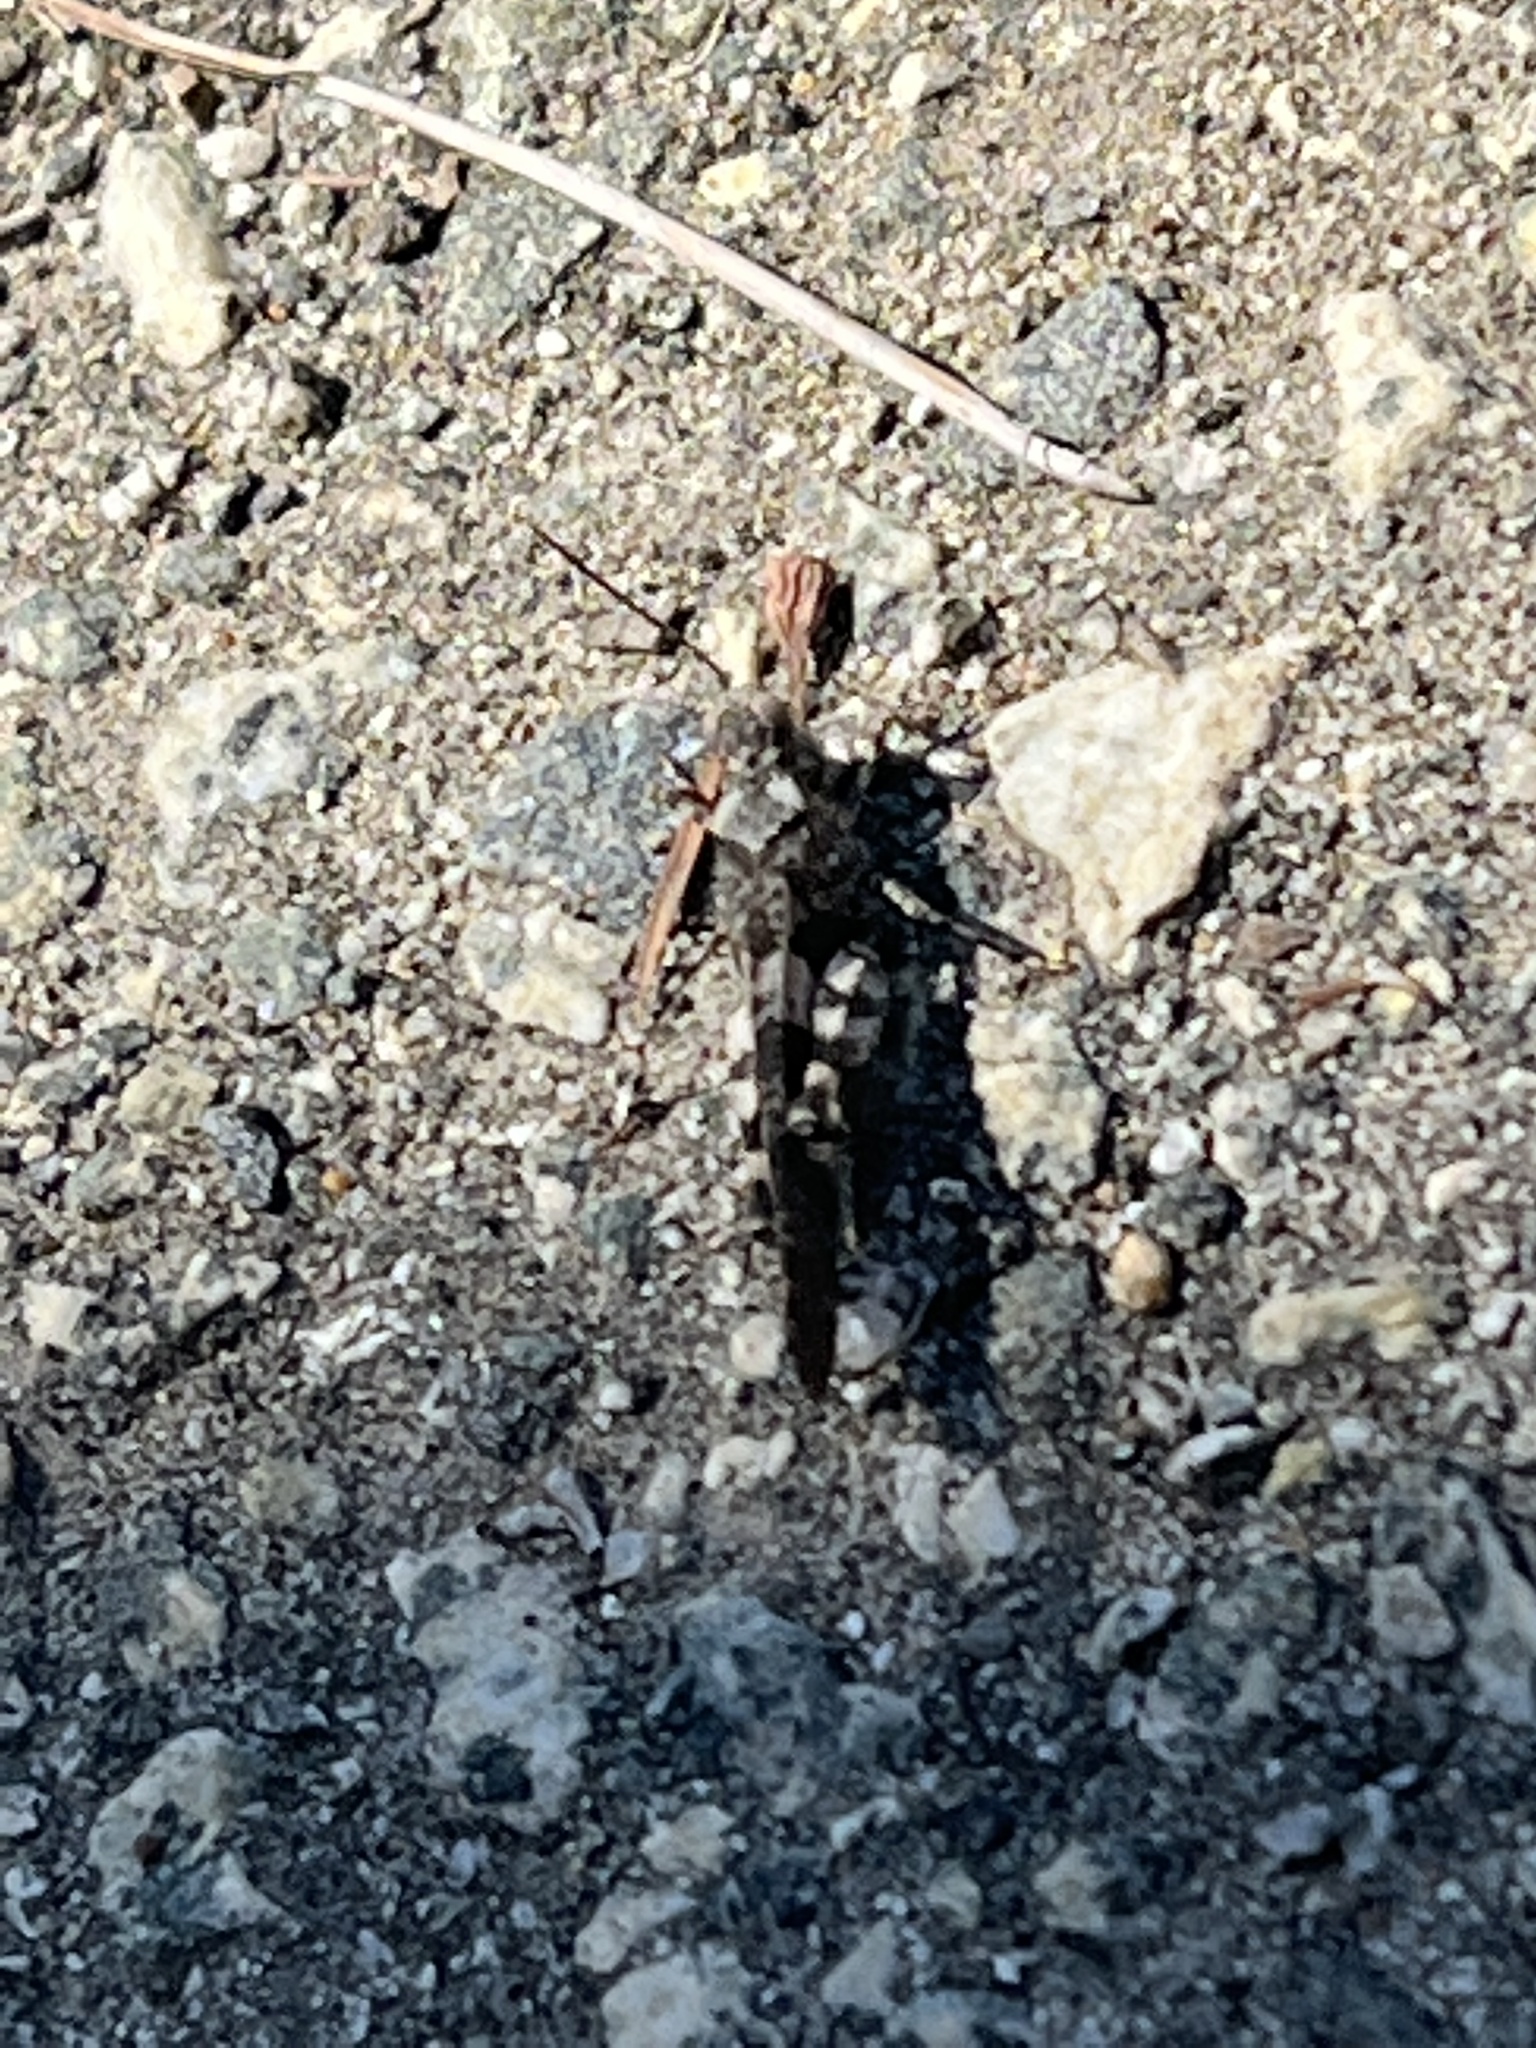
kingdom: Animalia
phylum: Arthropoda
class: Insecta
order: Orthoptera
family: Acrididae
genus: Trimerotropis
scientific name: Trimerotropis fontana
